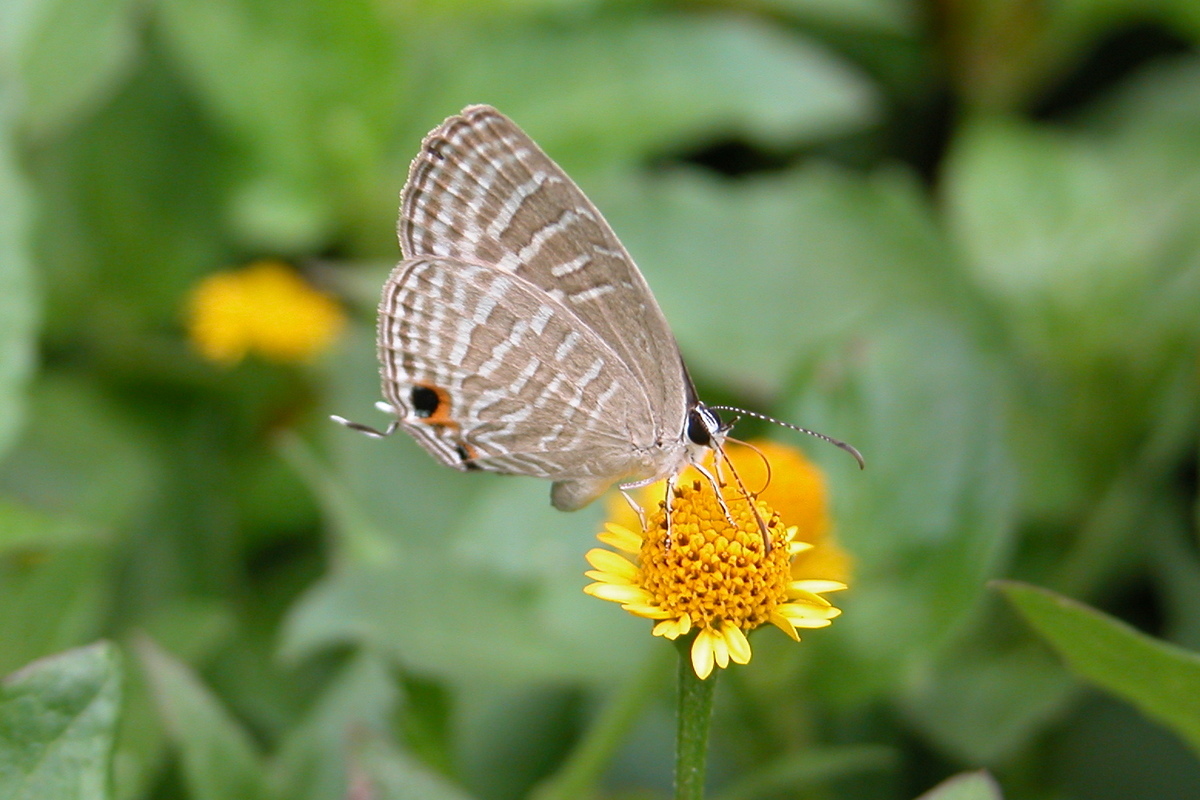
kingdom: Animalia
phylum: Arthropoda
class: Insecta
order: Lepidoptera
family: Lycaenidae
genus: Jamides
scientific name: Jamides celeno
